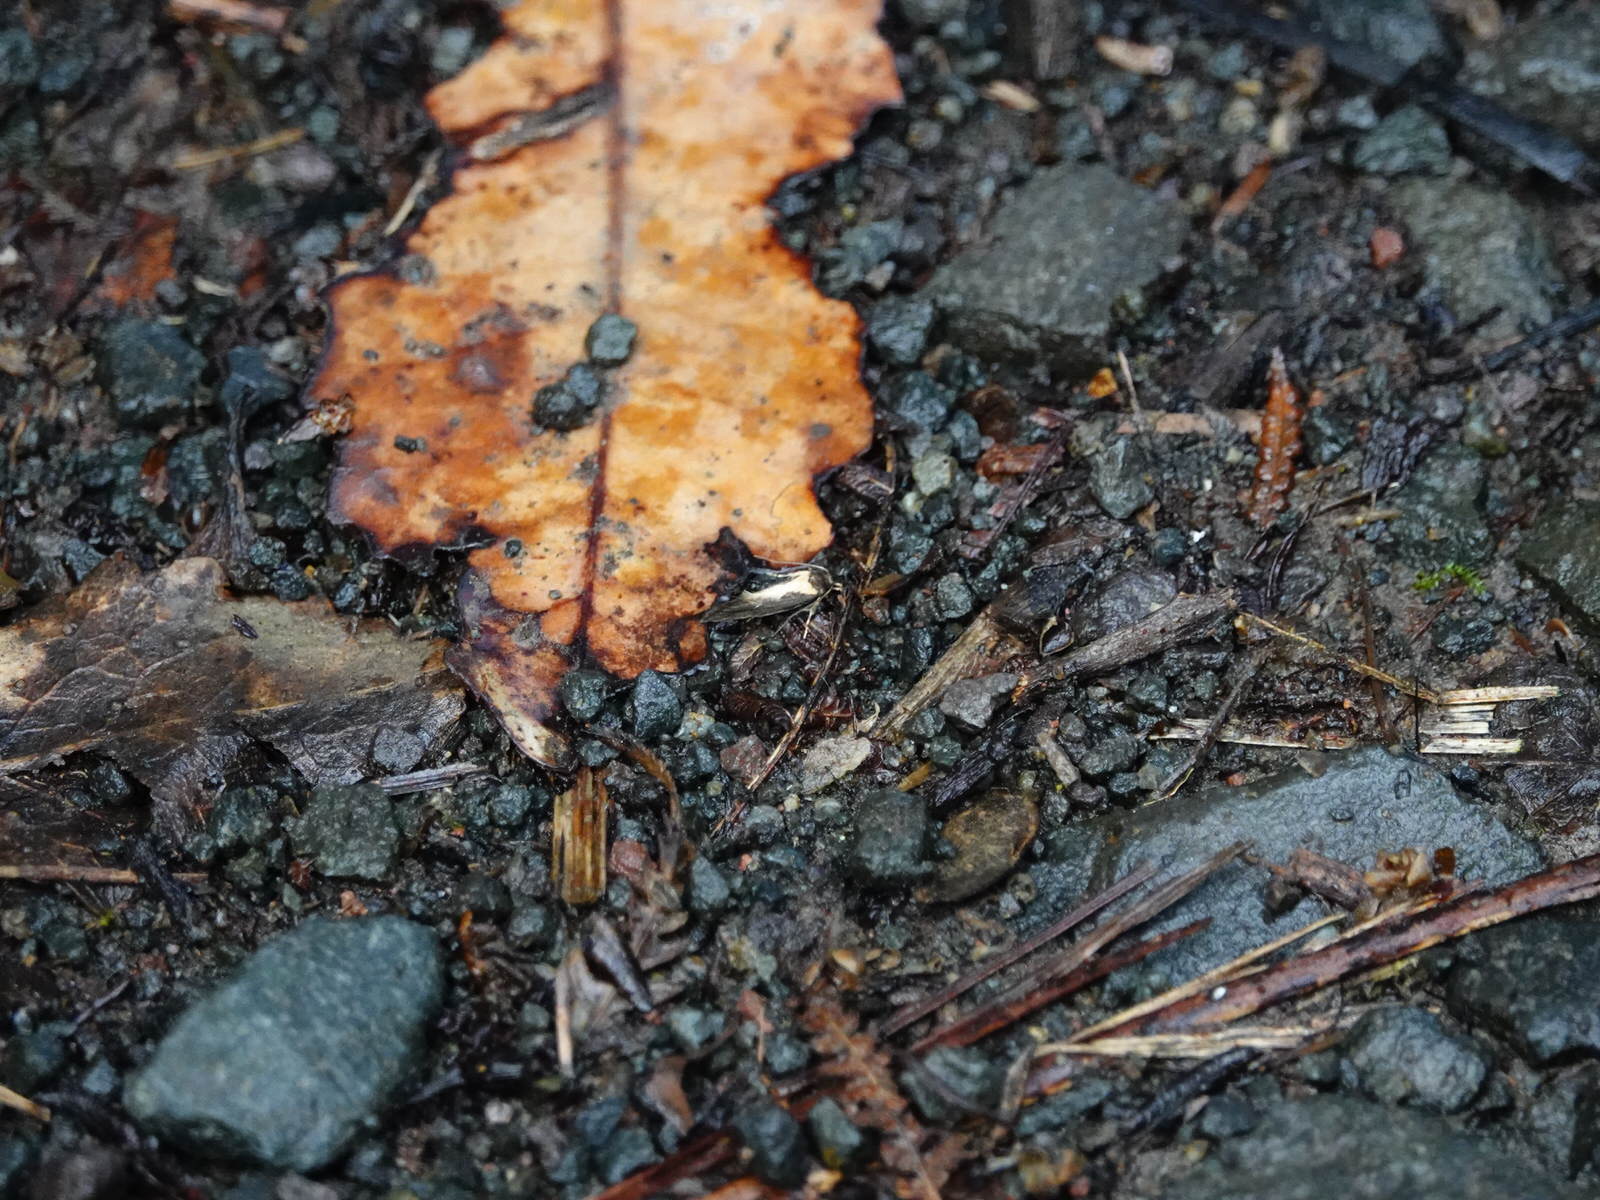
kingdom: Animalia
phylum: Arthropoda
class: Insecta
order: Lepidoptera
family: Oecophoridae
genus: Tingena
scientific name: Tingena basella
